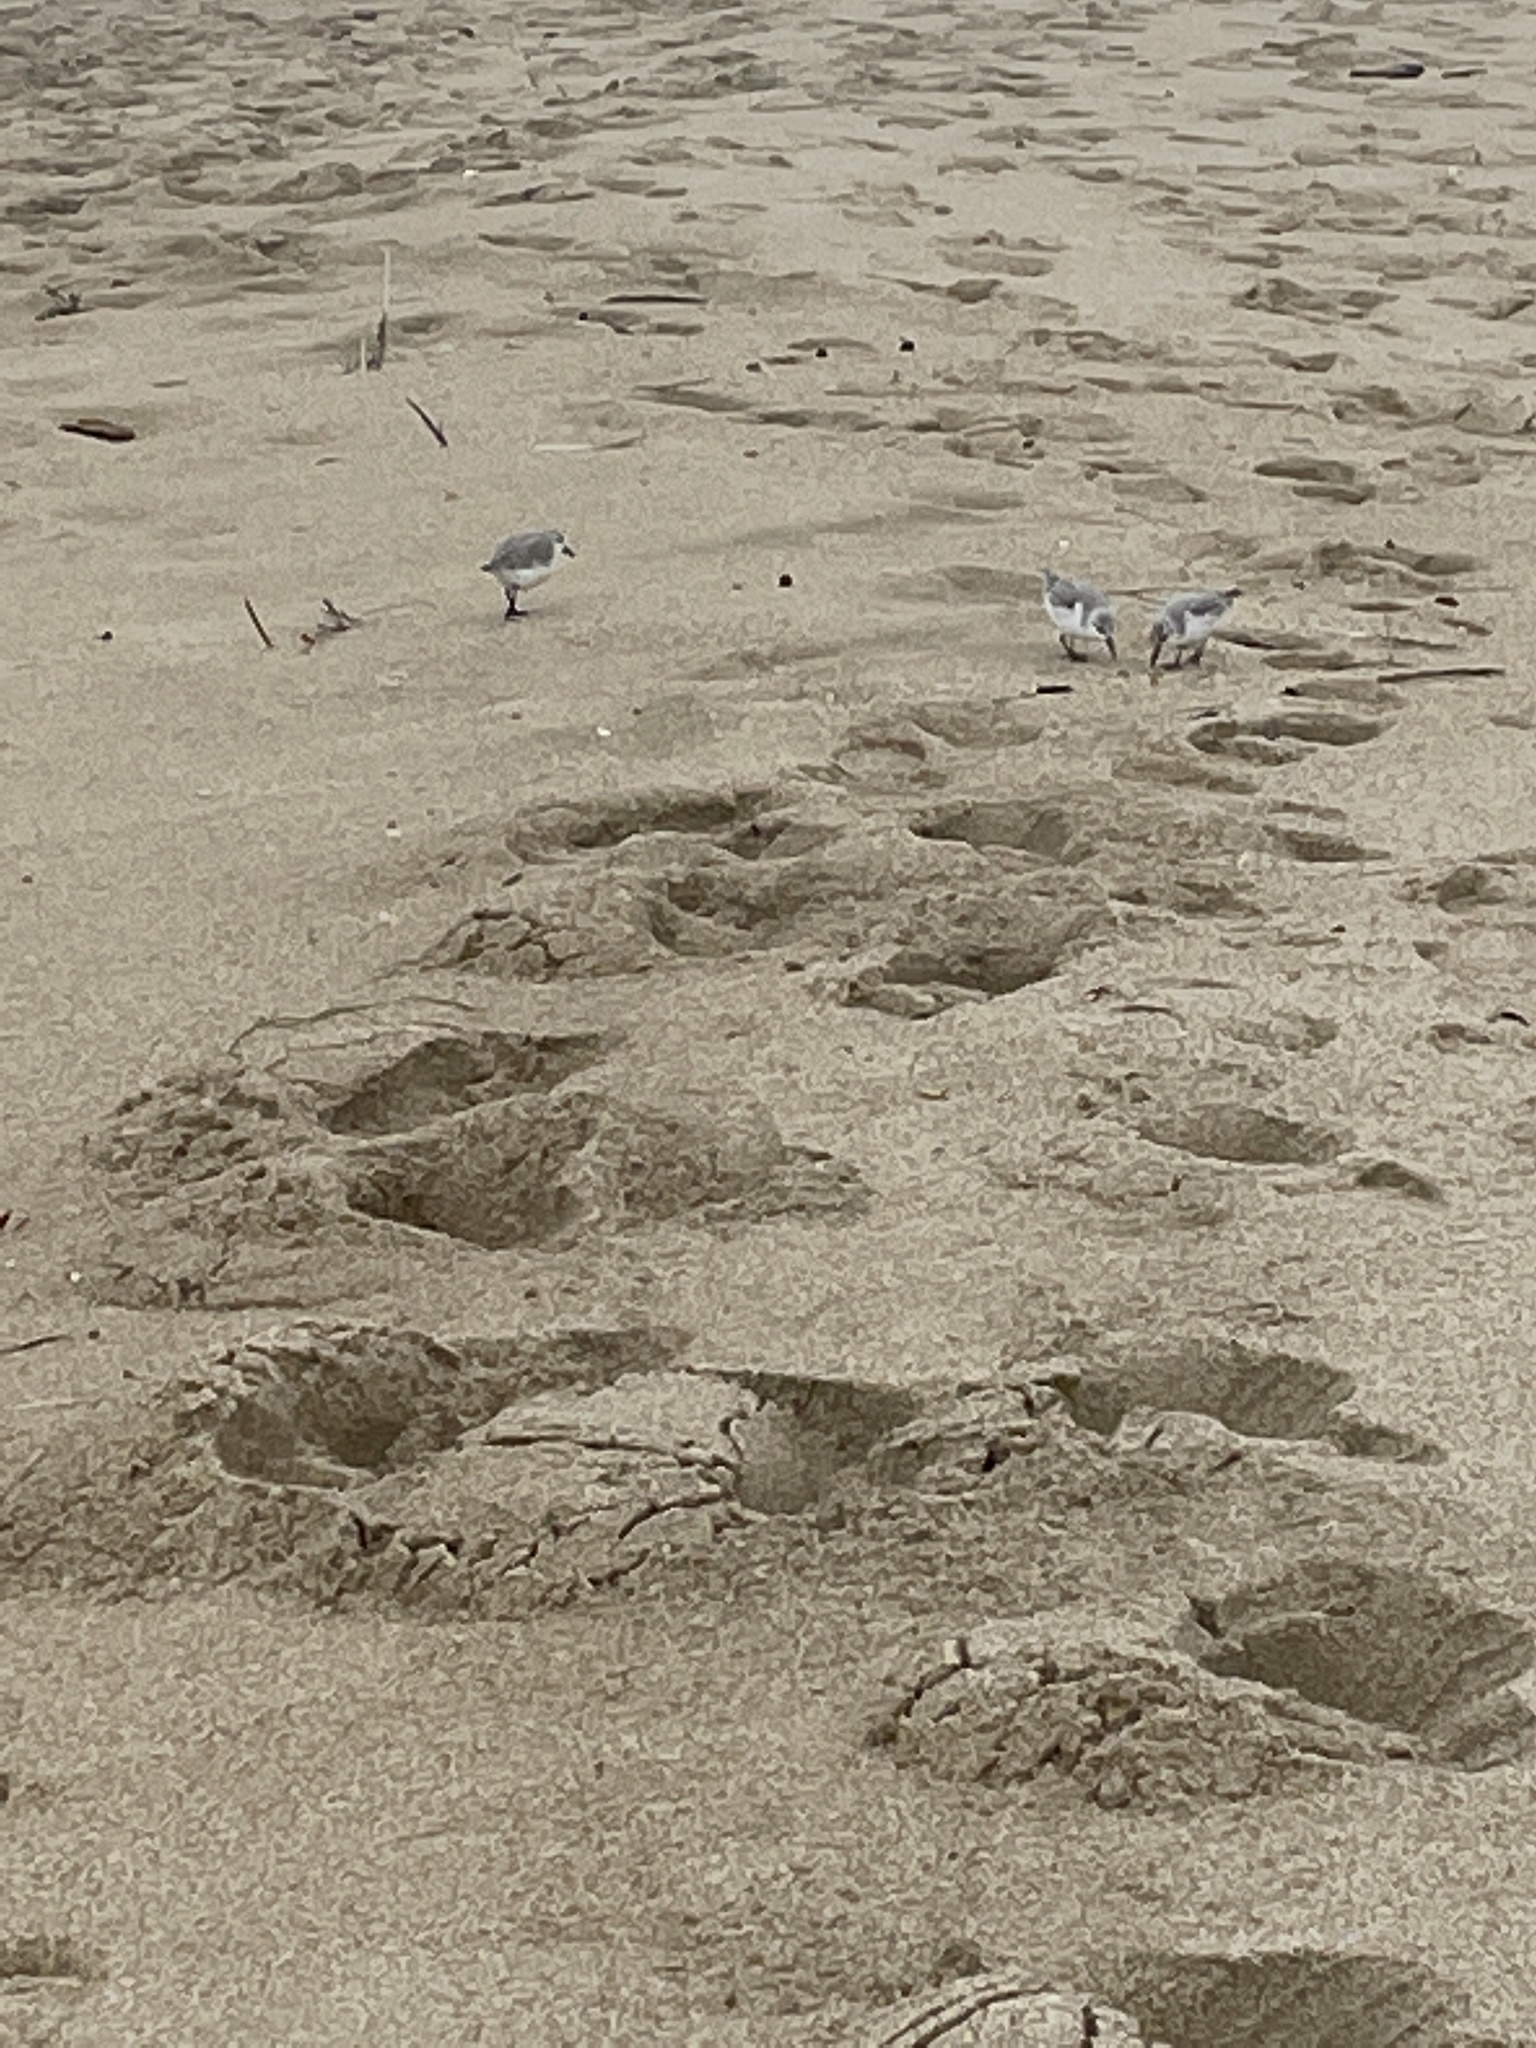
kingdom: Animalia
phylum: Chordata
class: Aves
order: Charadriiformes
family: Scolopacidae
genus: Calidris
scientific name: Calidris alba
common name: Sanderling
